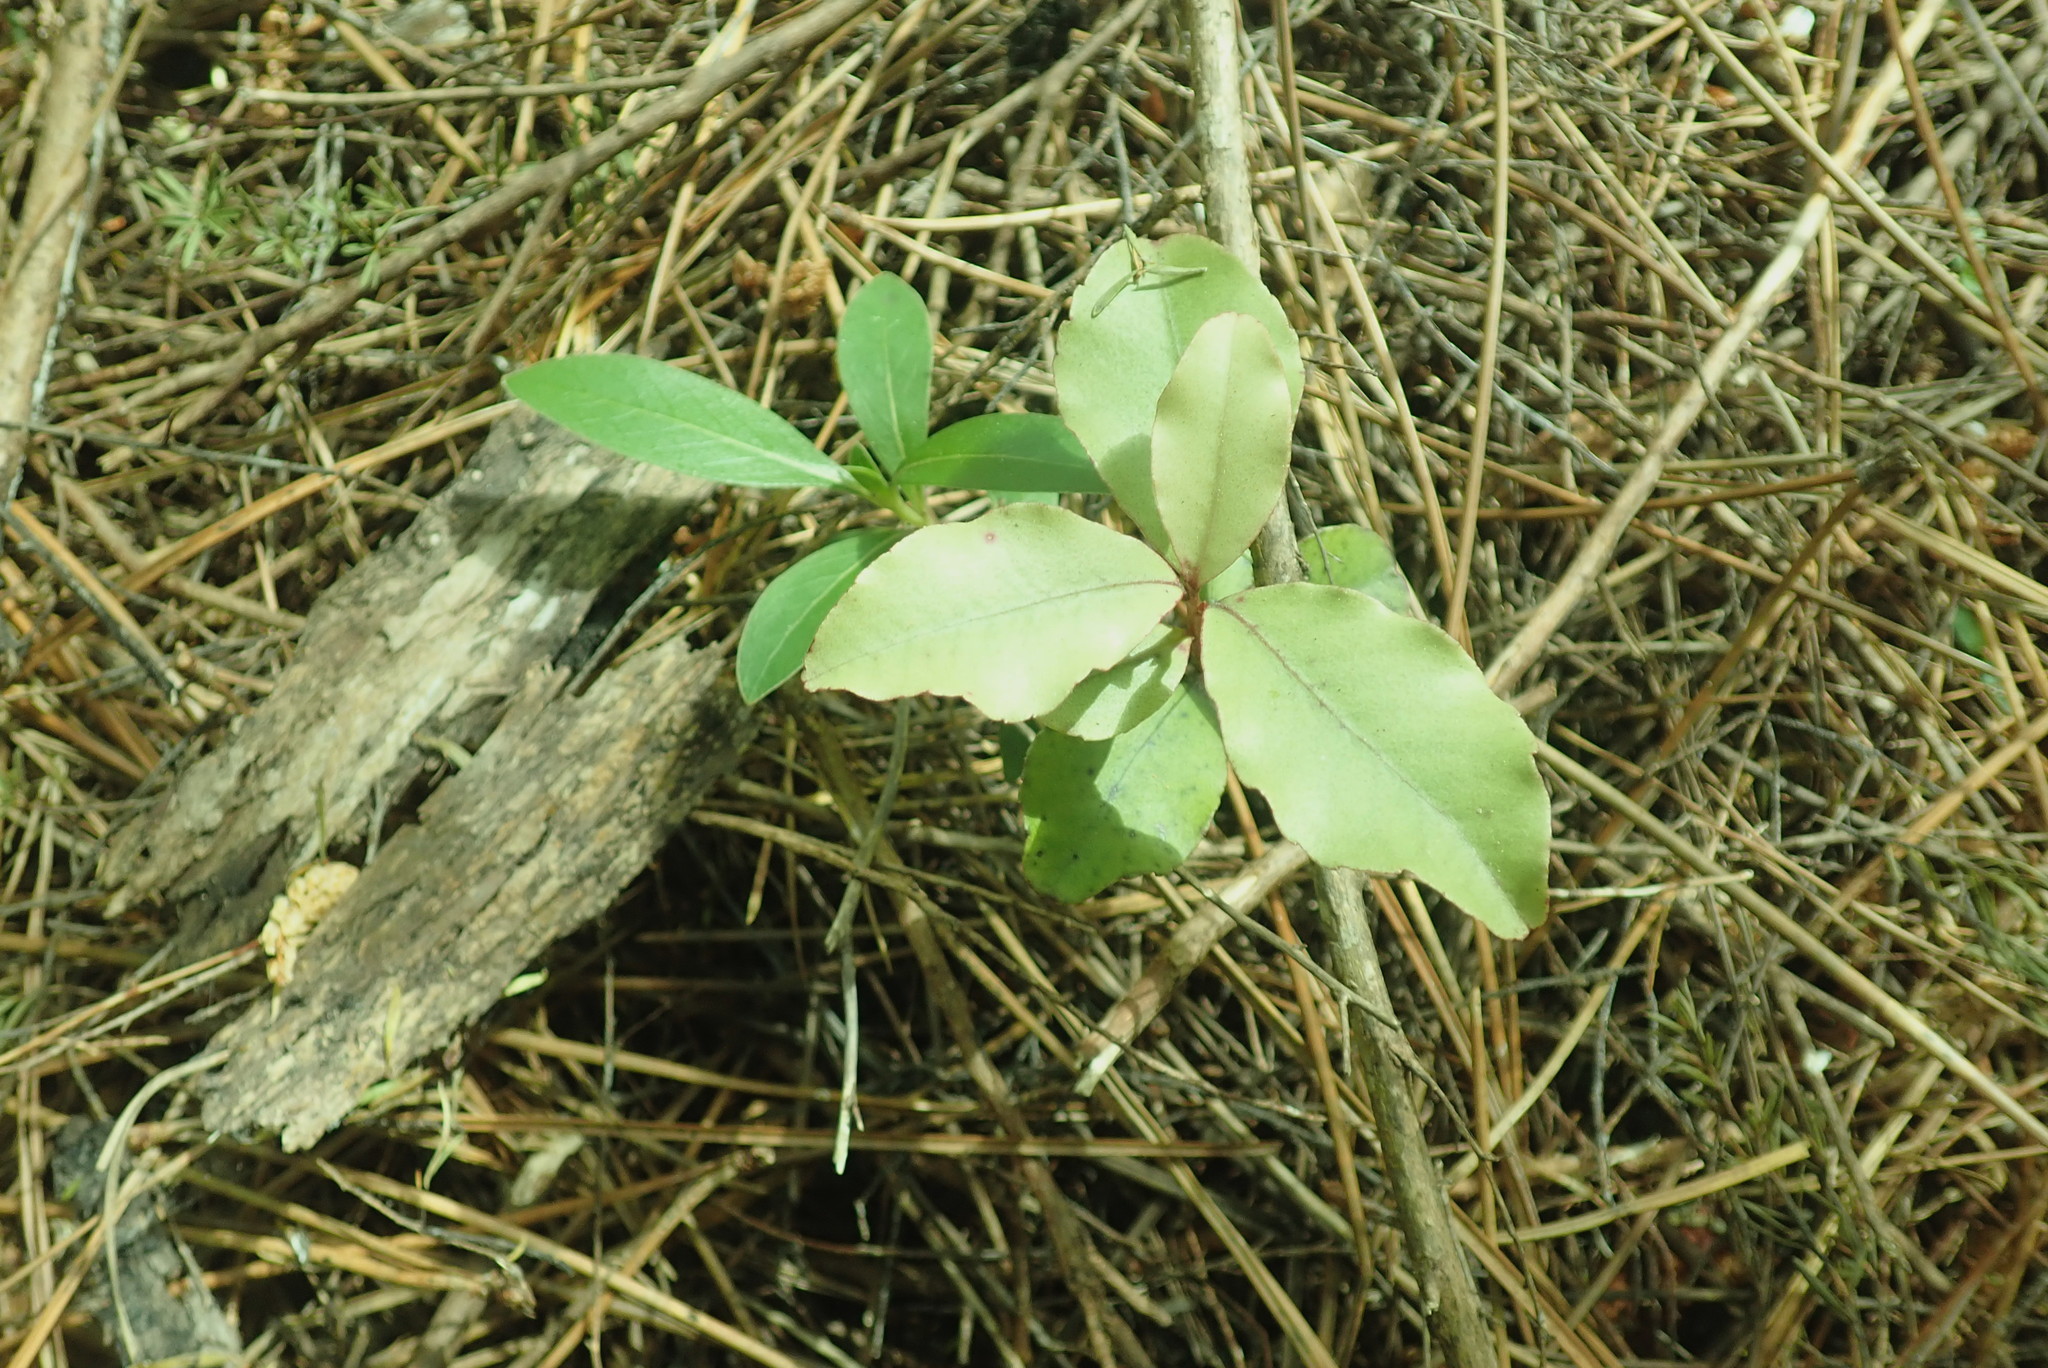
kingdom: Plantae
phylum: Tracheophyta
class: Magnoliopsida
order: Ericales
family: Primulaceae
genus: Myrsine
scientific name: Myrsine australis
